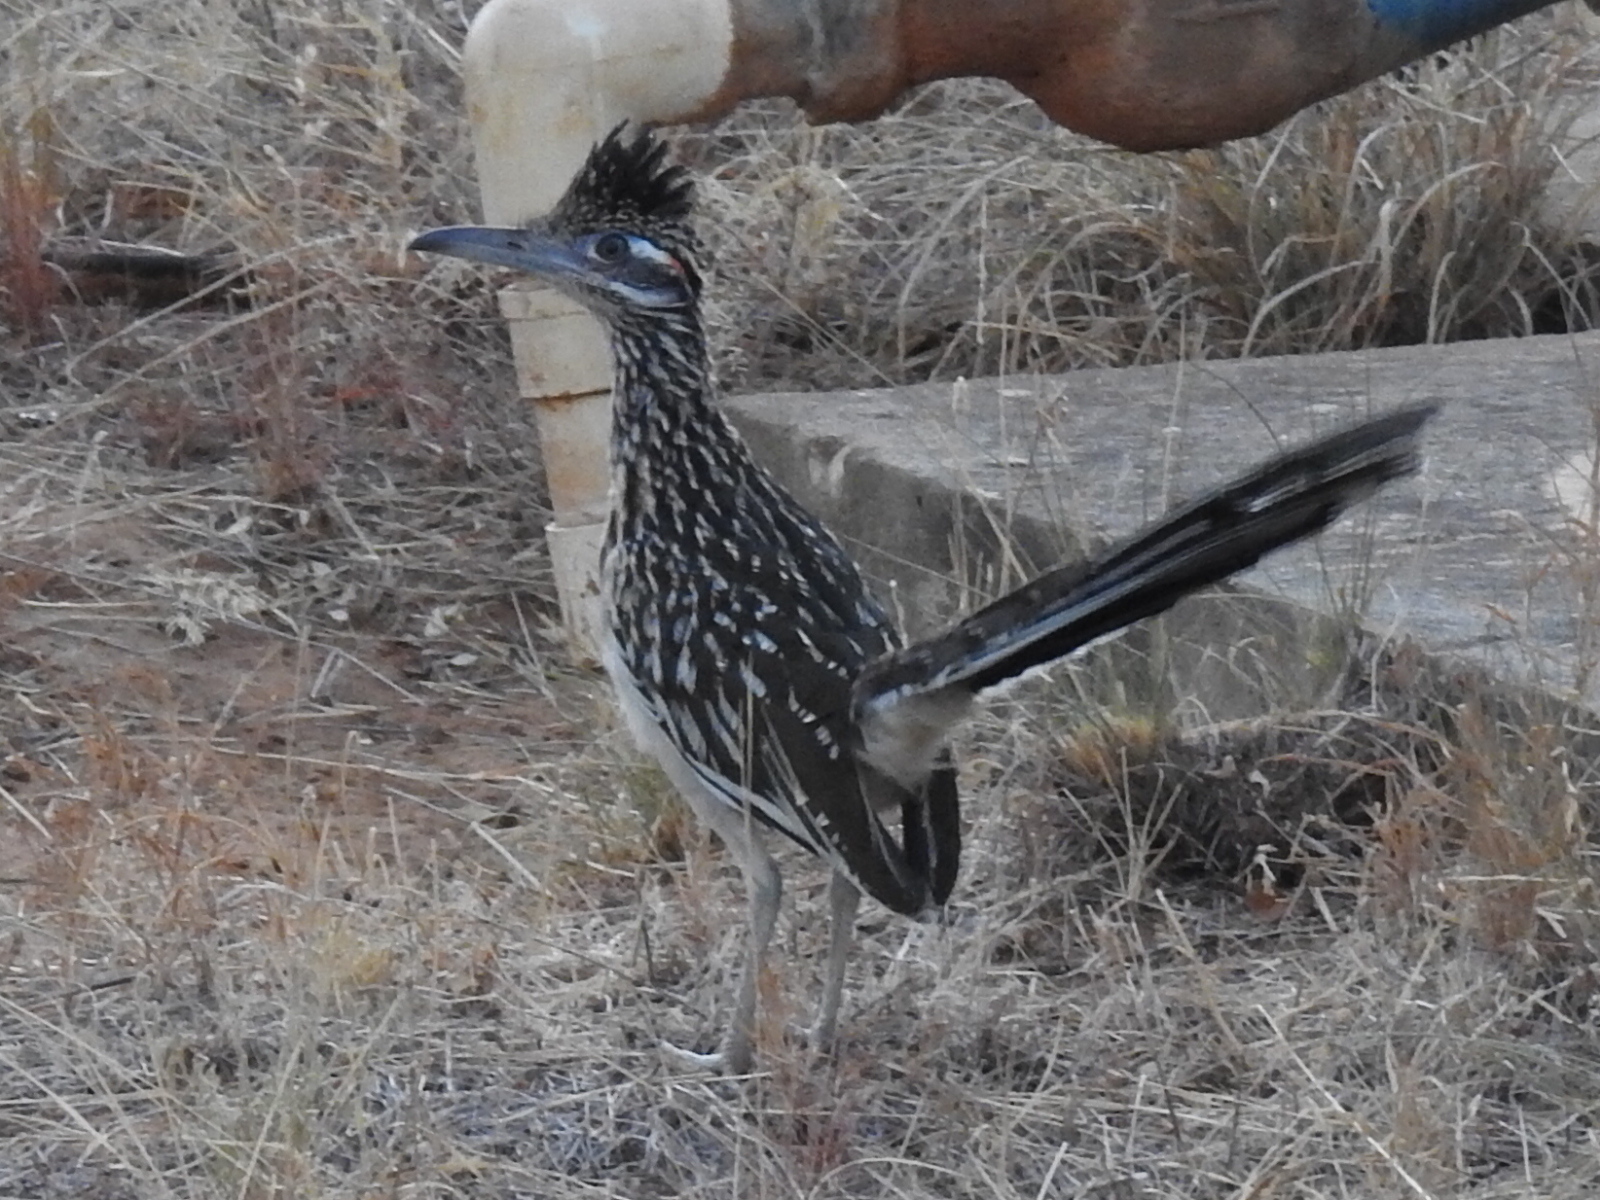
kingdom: Animalia
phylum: Chordata
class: Aves
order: Cuculiformes
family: Cuculidae
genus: Geococcyx
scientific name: Geococcyx californianus
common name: Greater roadrunner
